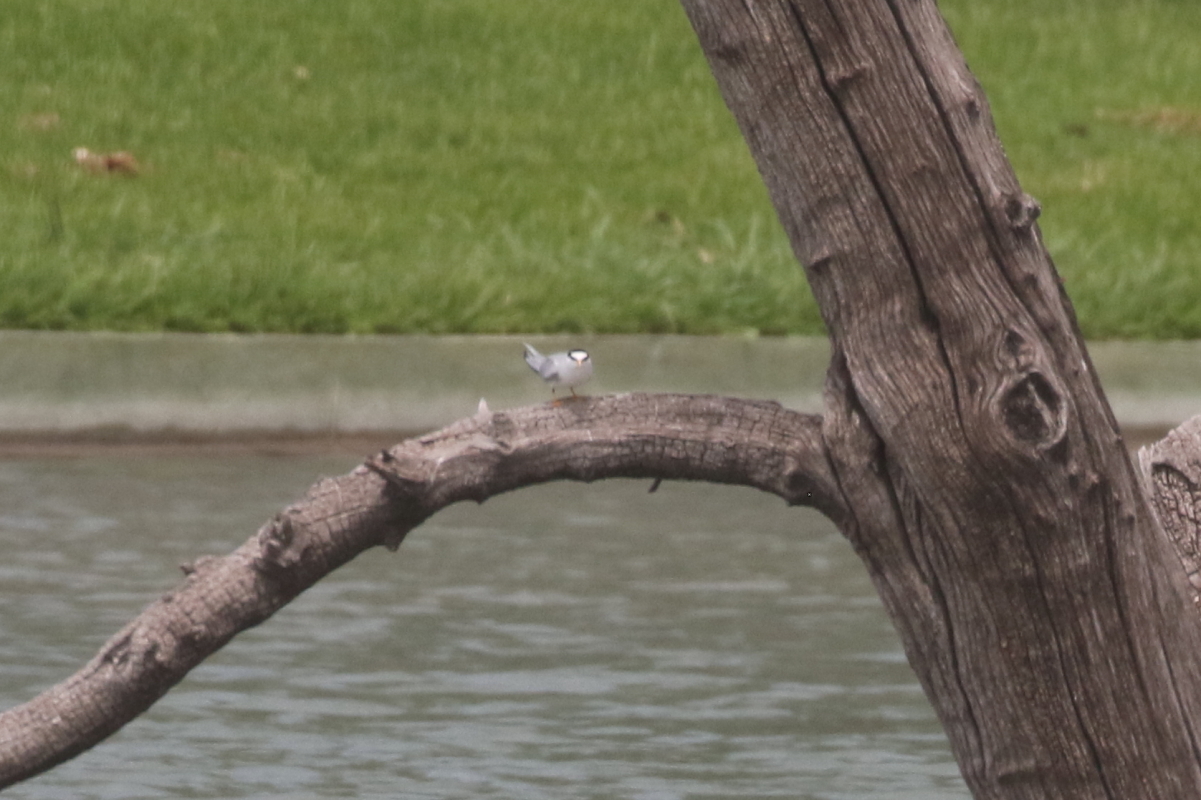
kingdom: Animalia
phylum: Chordata
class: Aves
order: Charadriiformes
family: Laridae
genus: Sternula
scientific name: Sternula antillarum
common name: Least tern
